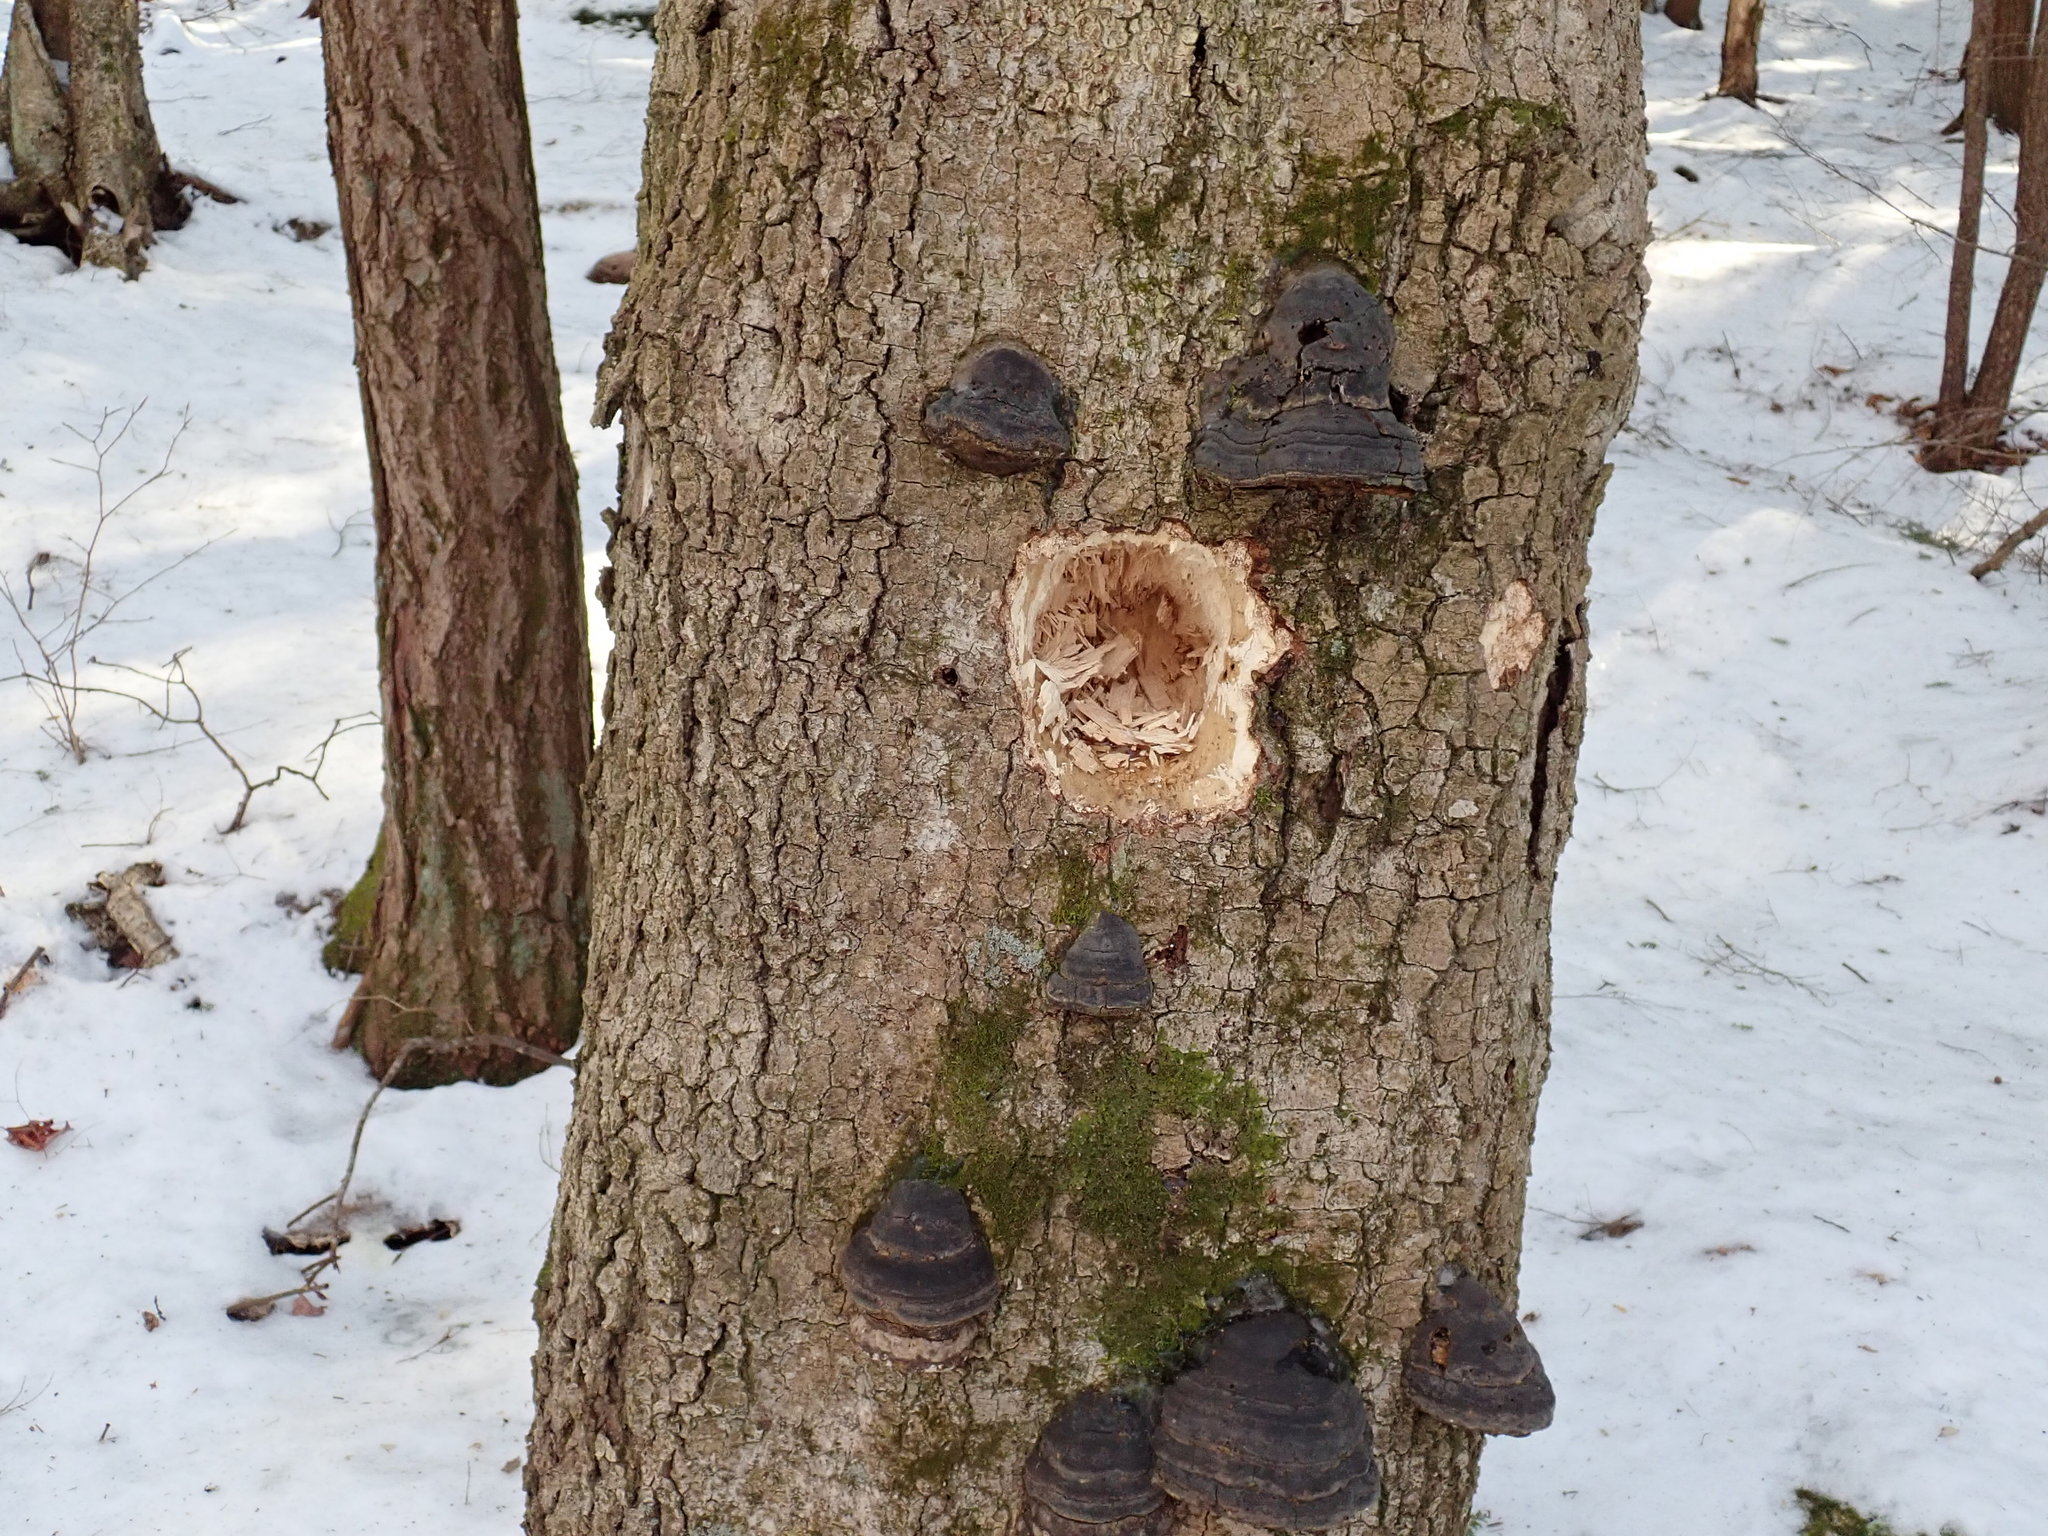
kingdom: Animalia
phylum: Chordata
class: Aves
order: Piciformes
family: Picidae
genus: Dryocopus
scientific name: Dryocopus pileatus
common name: Pileated woodpecker
